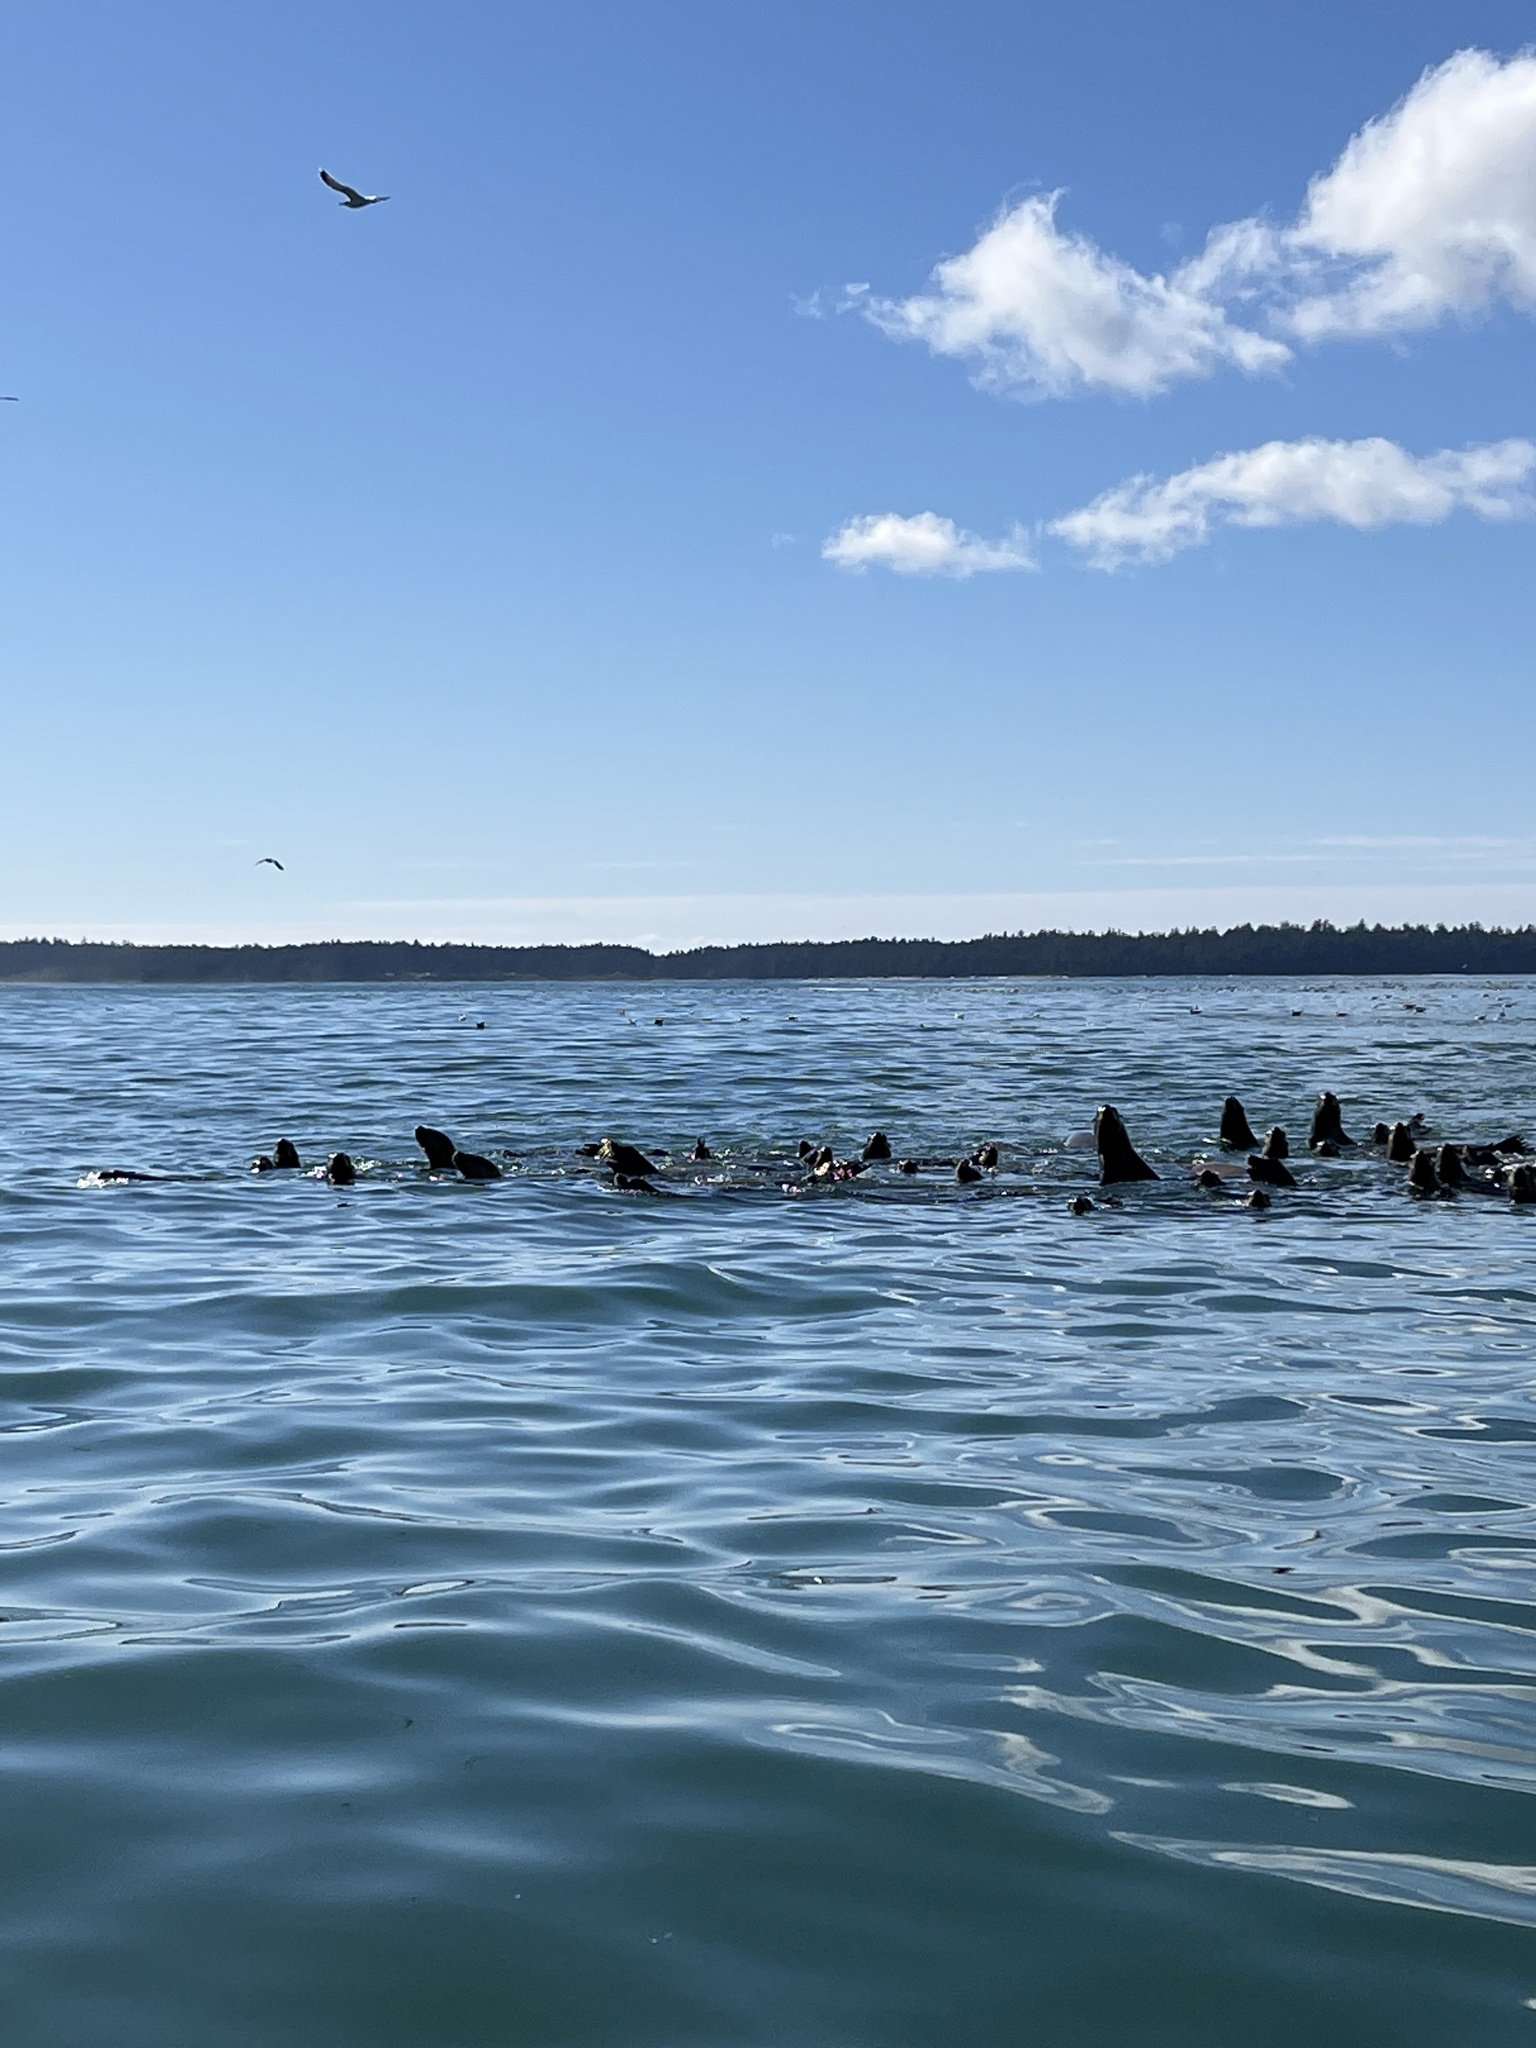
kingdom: Animalia
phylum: Chordata
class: Mammalia
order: Carnivora
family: Otariidae
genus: Zalophus
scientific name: Zalophus californianus
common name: California sea lion
